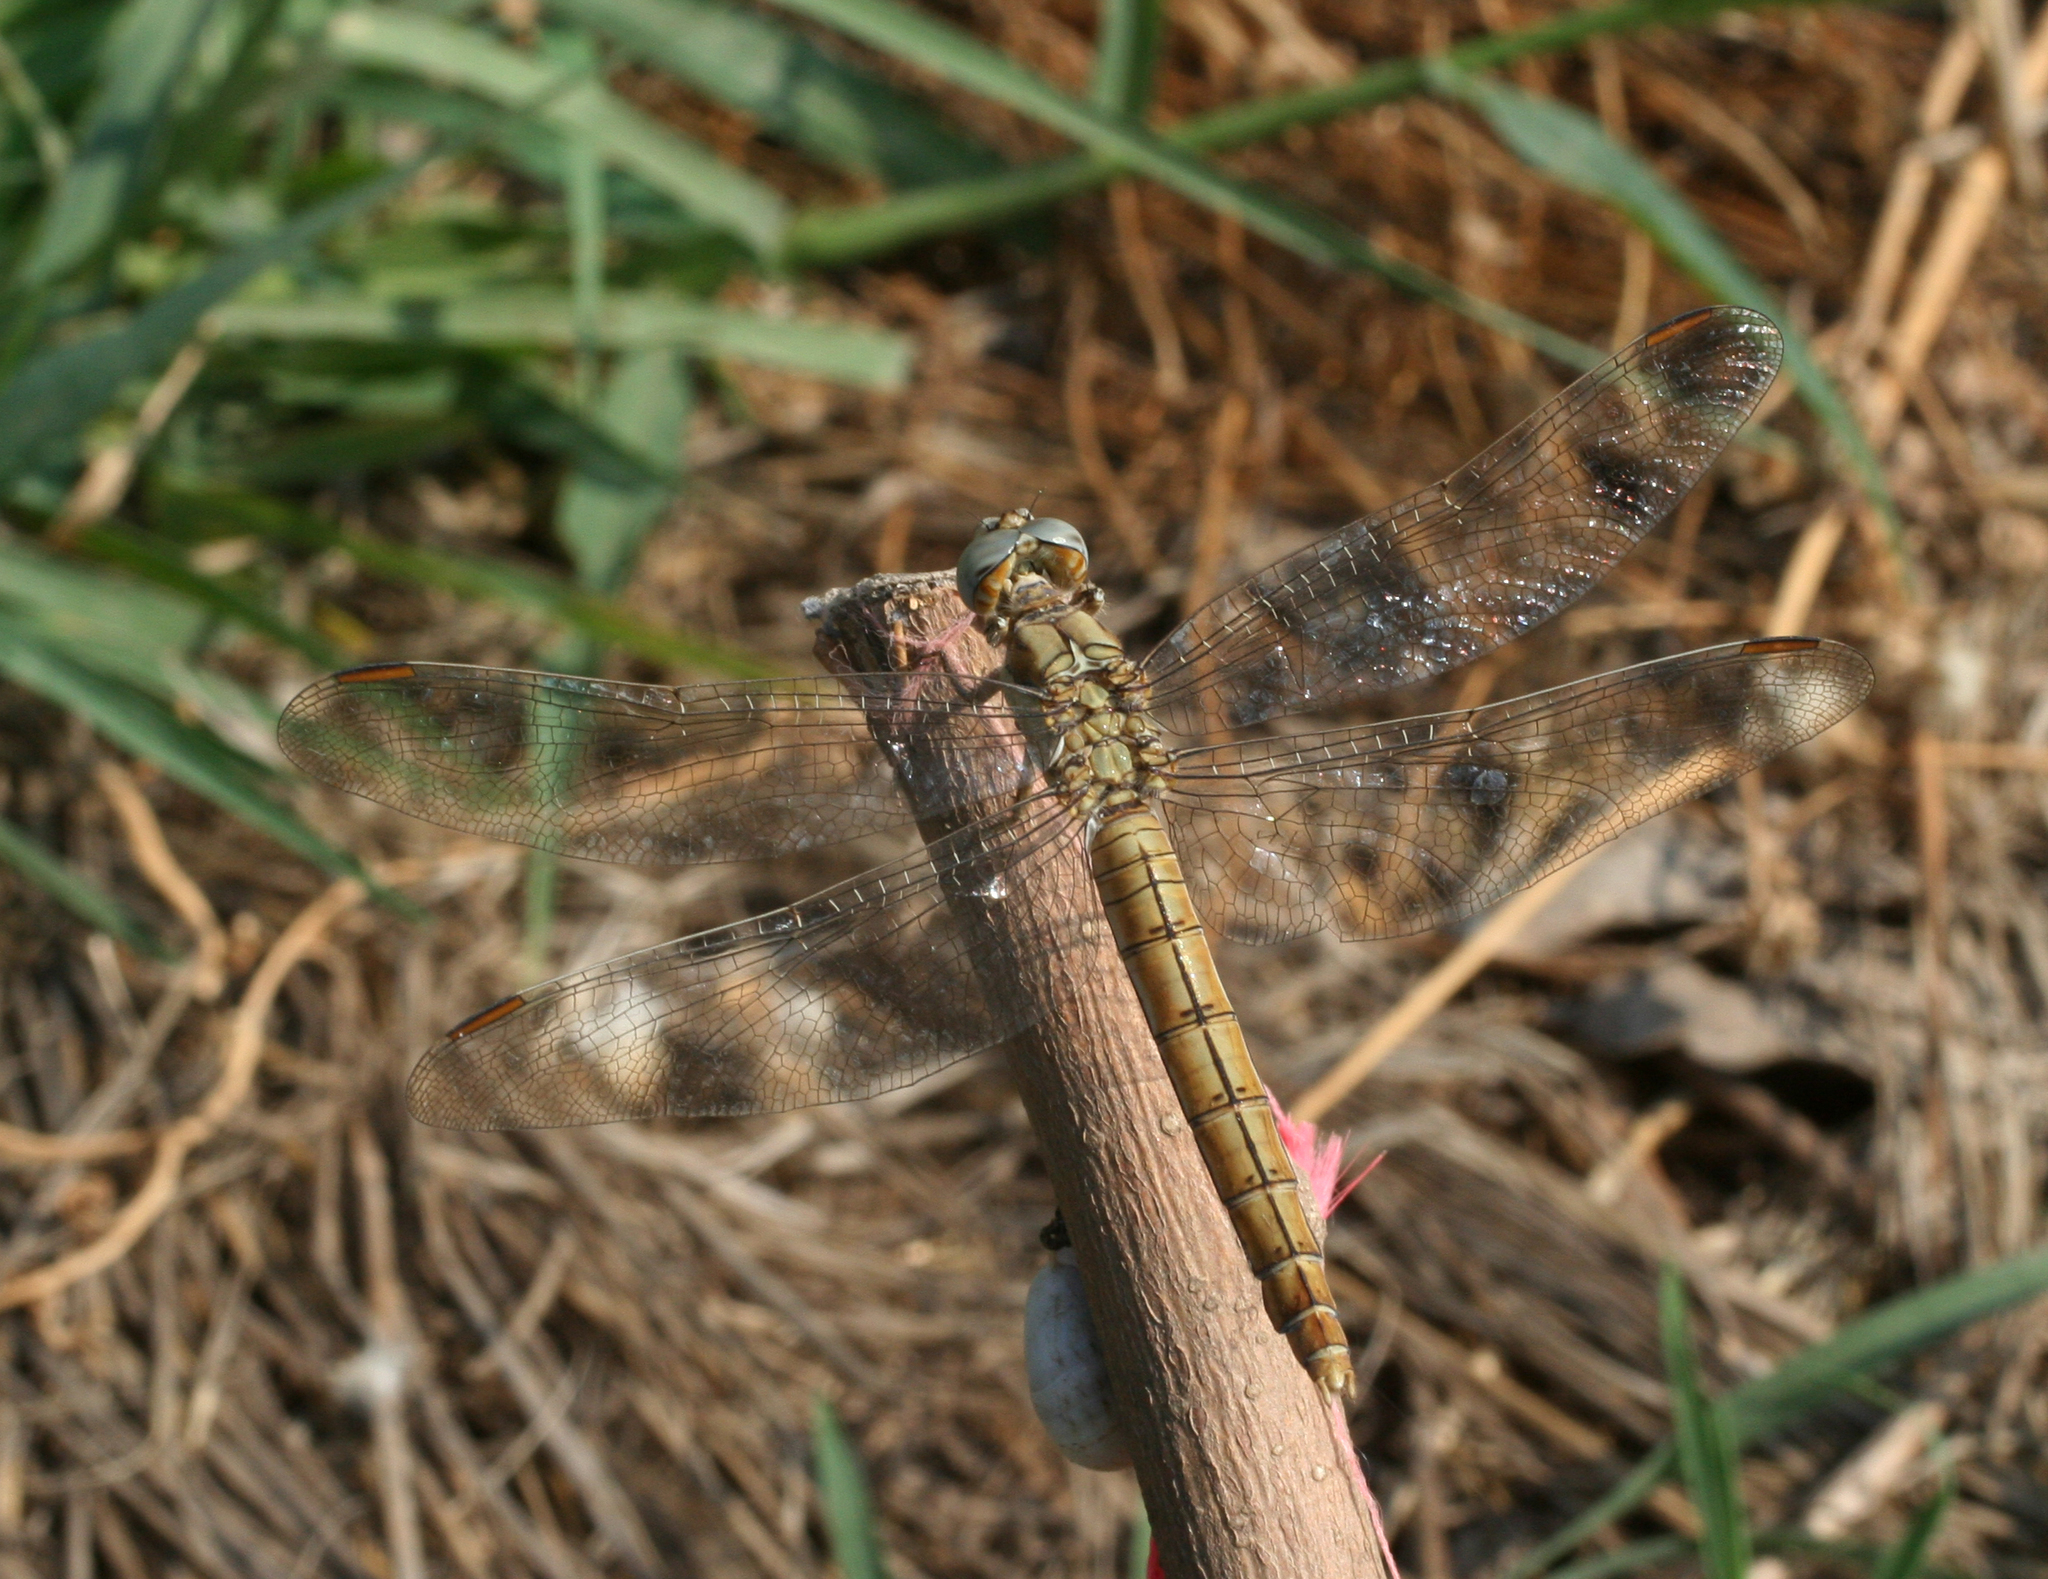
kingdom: Animalia
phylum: Arthropoda
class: Insecta
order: Odonata
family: Libellulidae
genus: Orthetrum
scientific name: Orthetrum brunneum
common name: Southern skimmer
